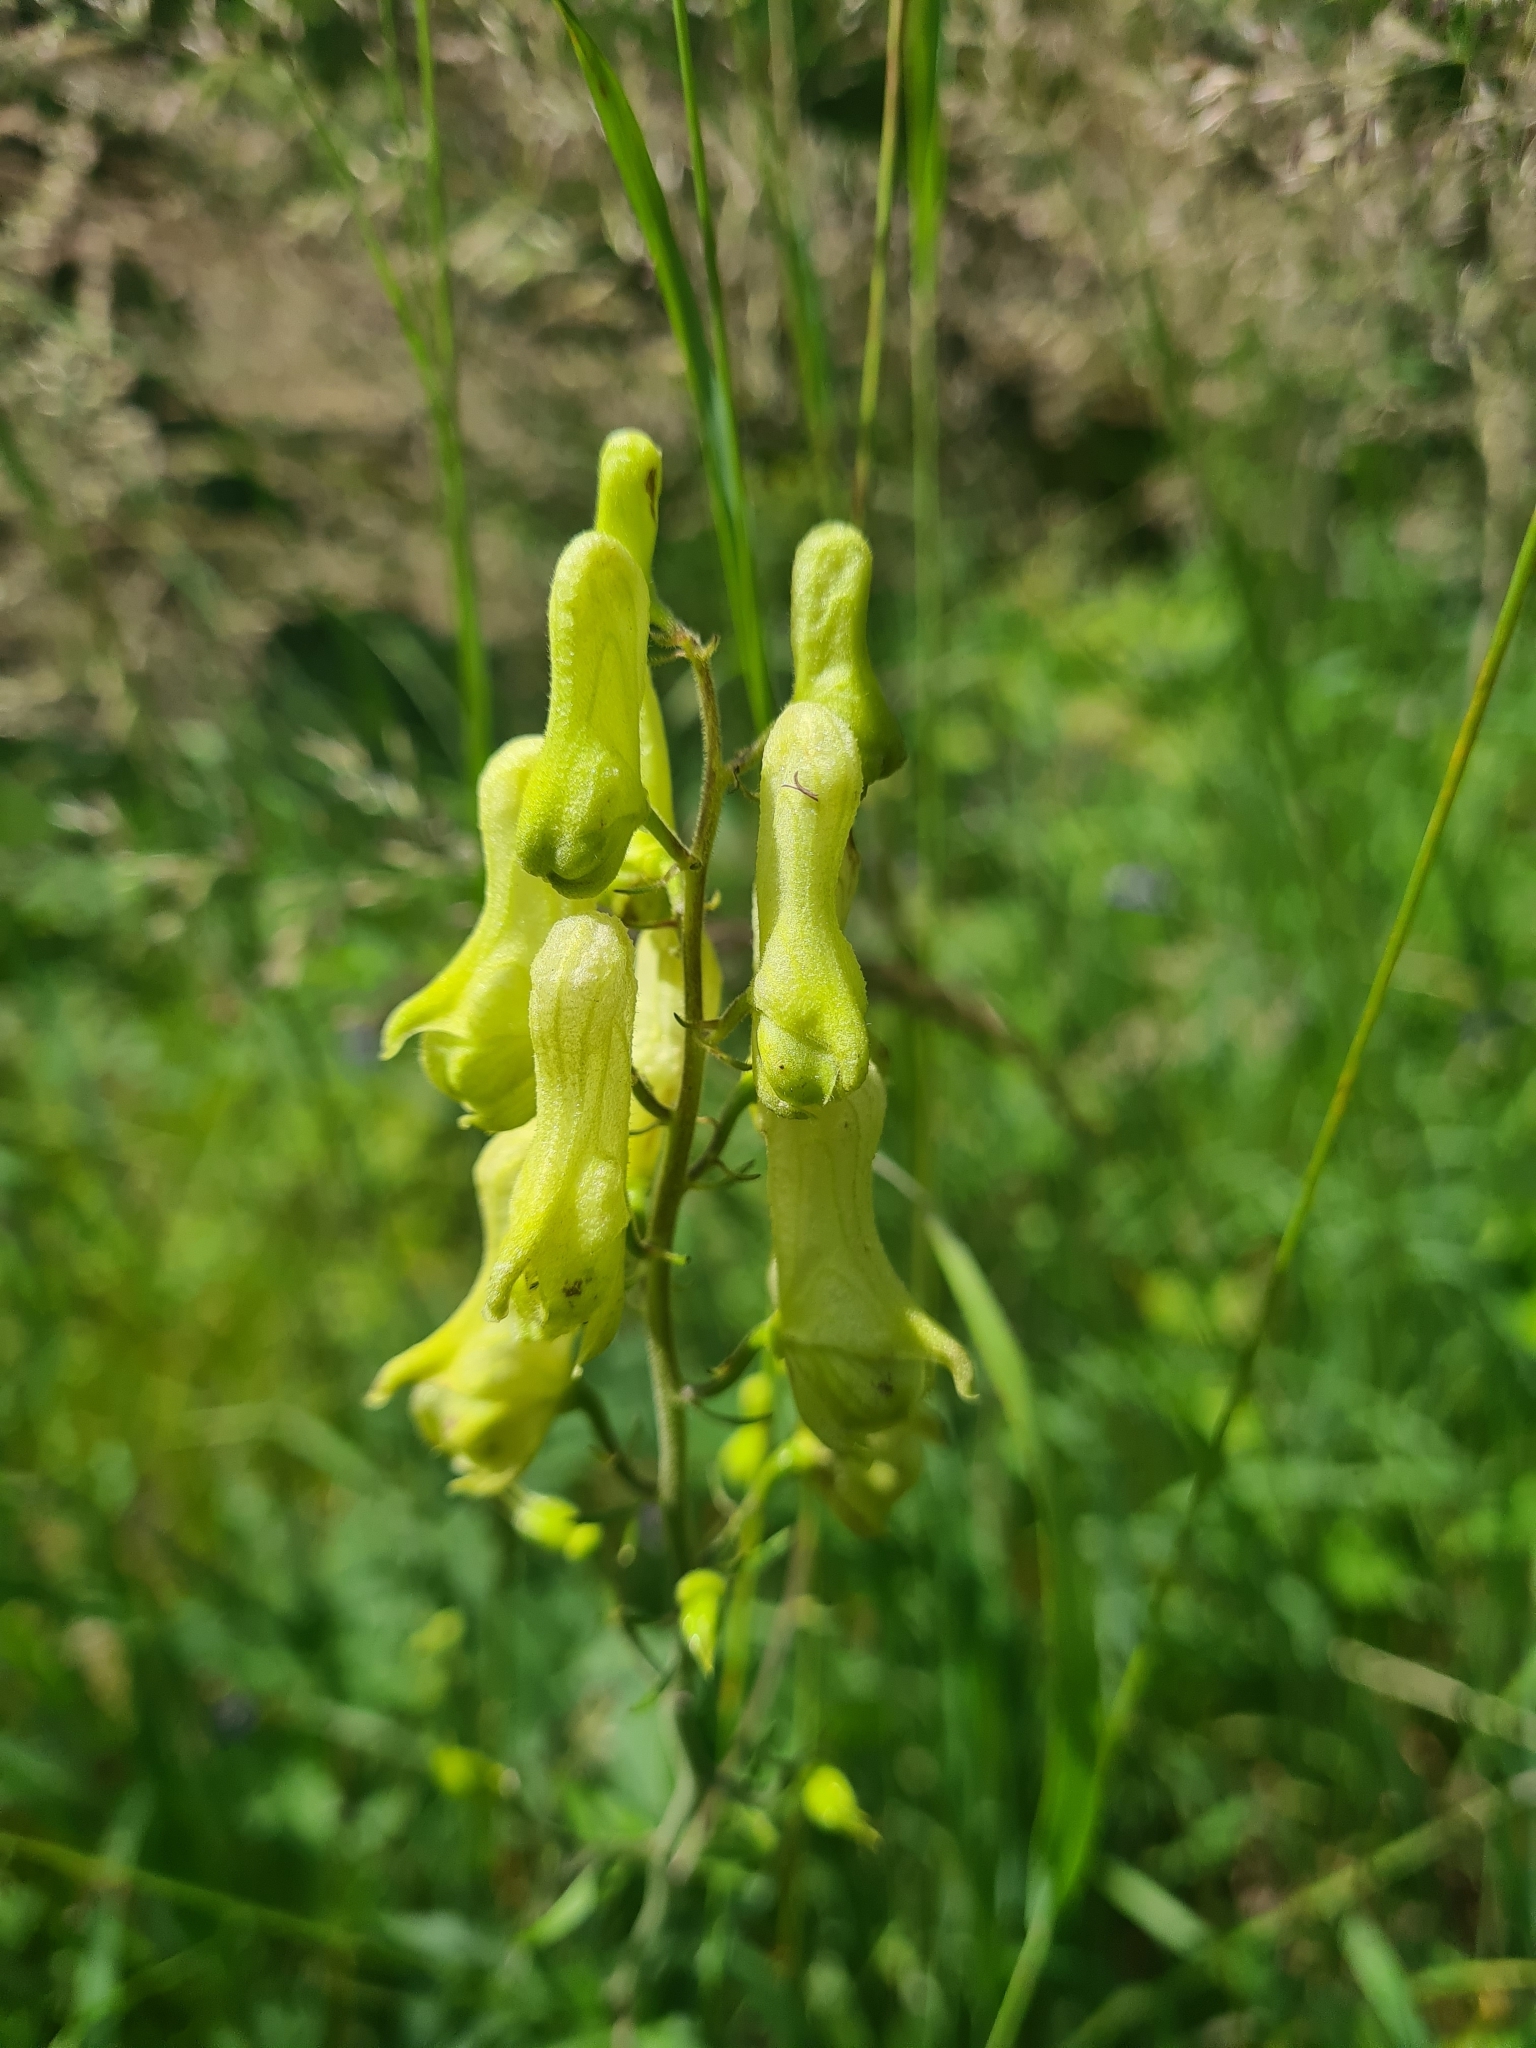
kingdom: Plantae
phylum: Tracheophyta
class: Magnoliopsida
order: Ranunculales
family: Ranunculaceae
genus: Aconitum
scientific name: Aconitum lycoctonum
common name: Wolf's-bane
